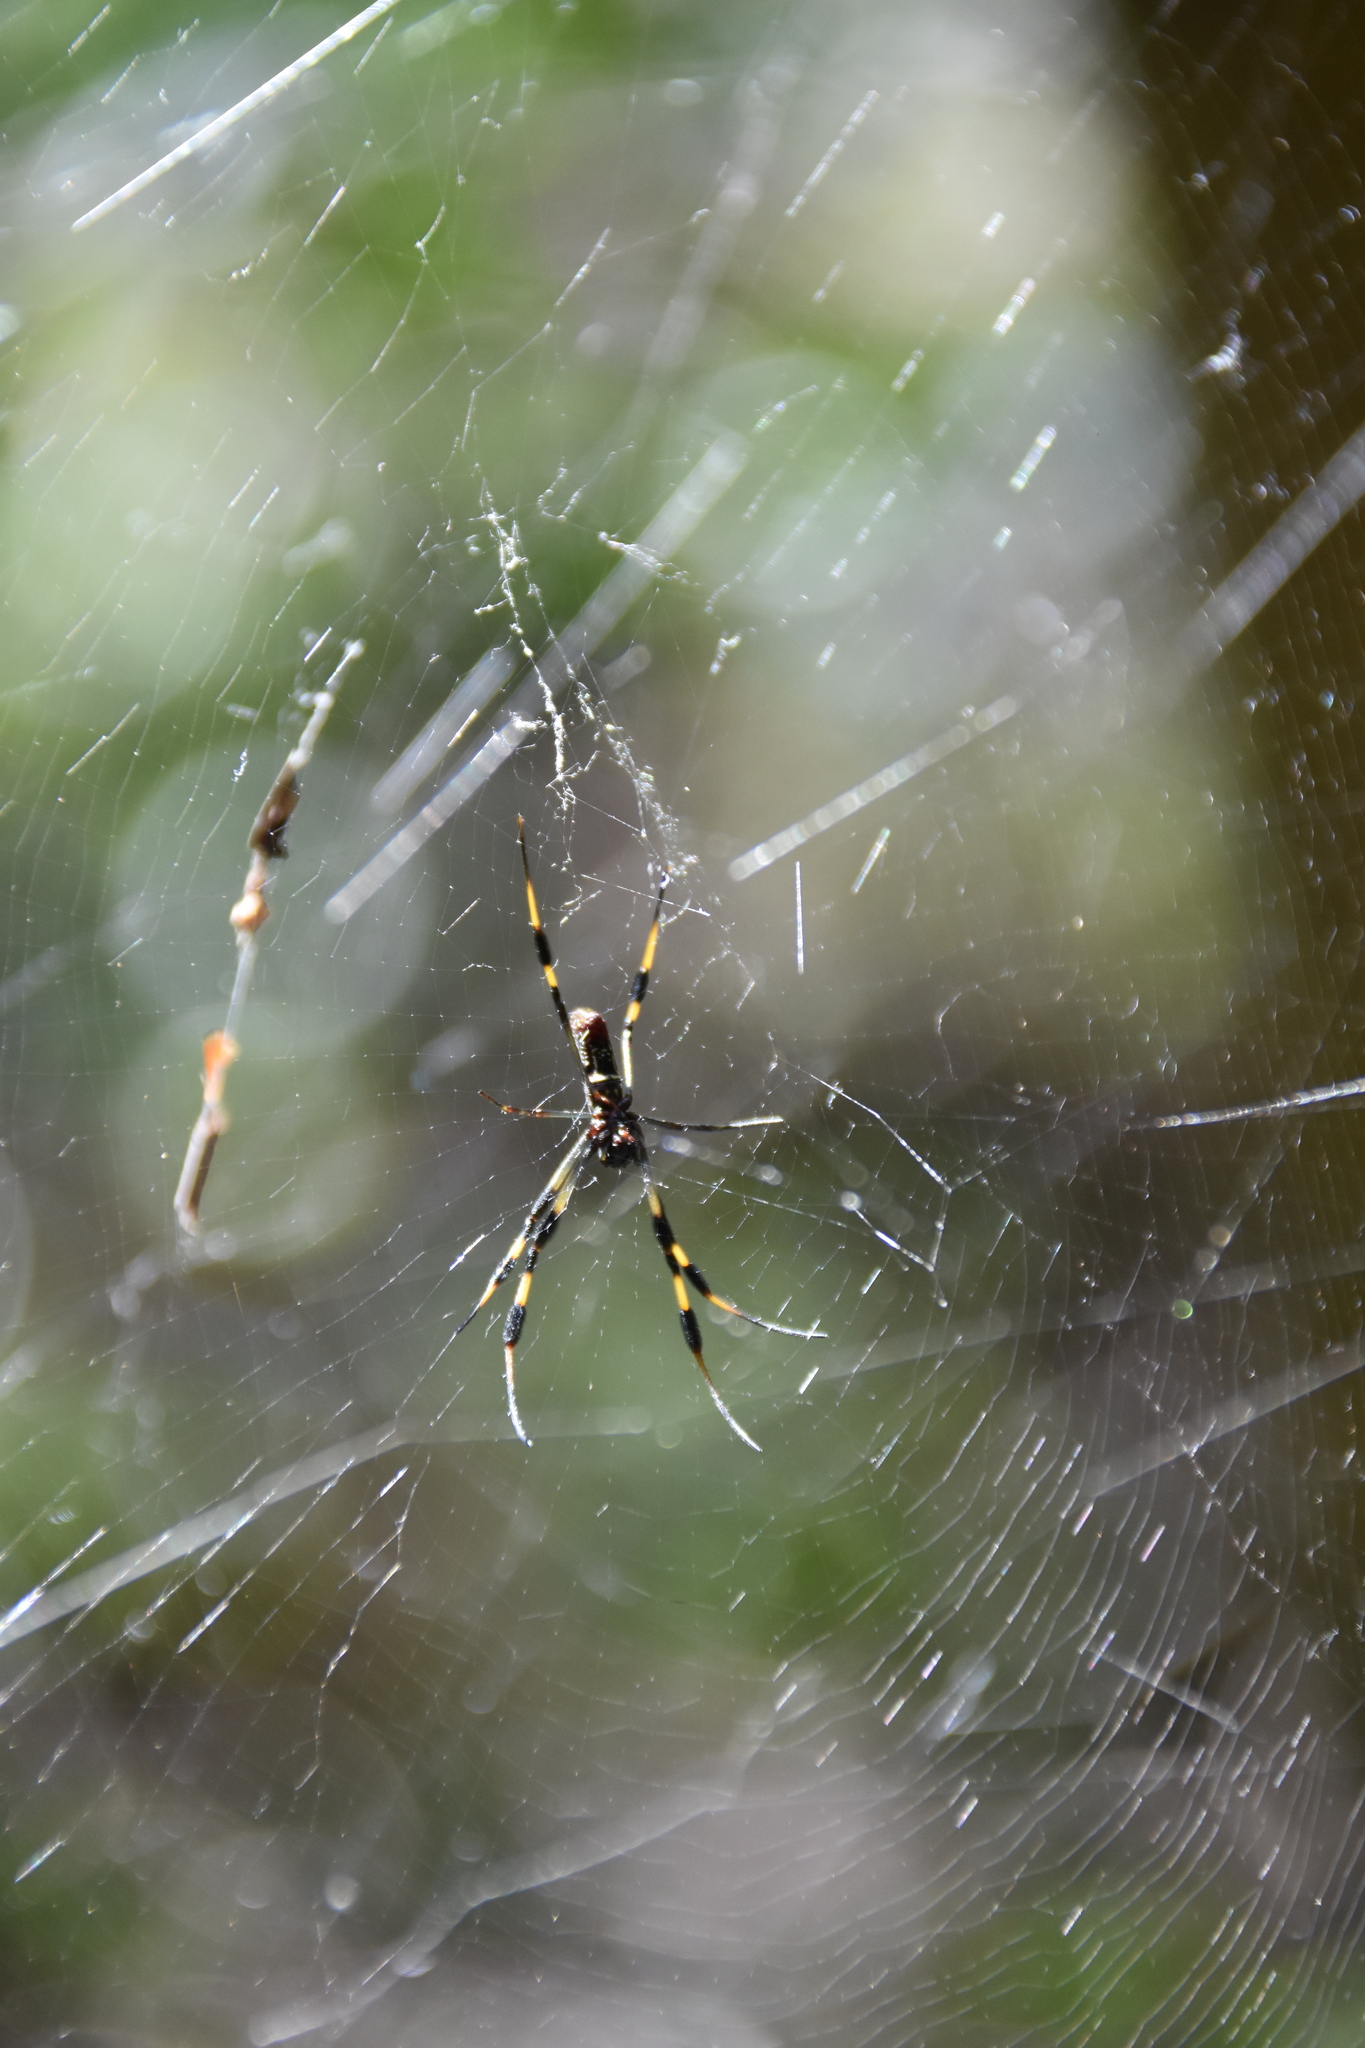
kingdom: Animalia
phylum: Arthropoda
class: Arachnida
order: Araneae
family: Araneidae
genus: Trichonephila
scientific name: Trichonephila clavipes
